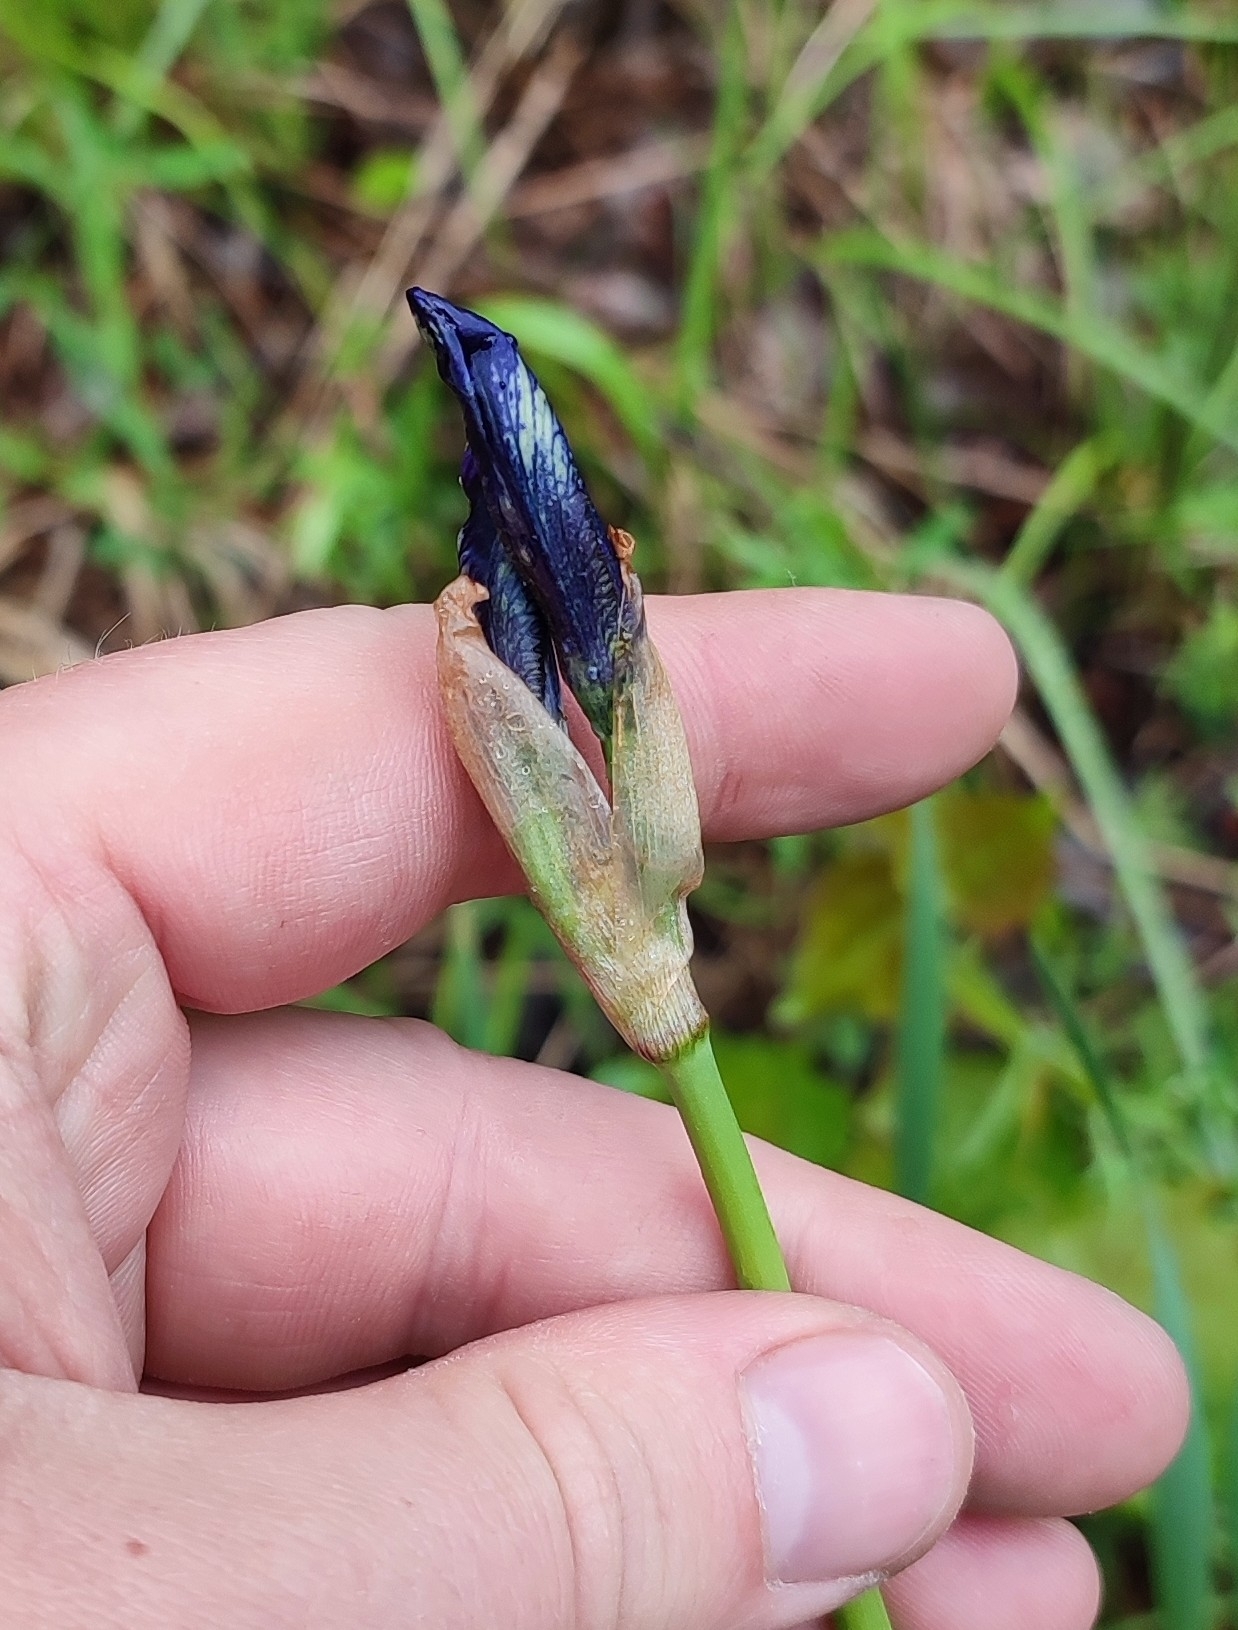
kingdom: Plantae
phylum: Tracheophyta
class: Liliopsida
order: Asparagales
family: Iridaceae
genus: Iris
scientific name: Iris sibirica
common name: Siberian iris
